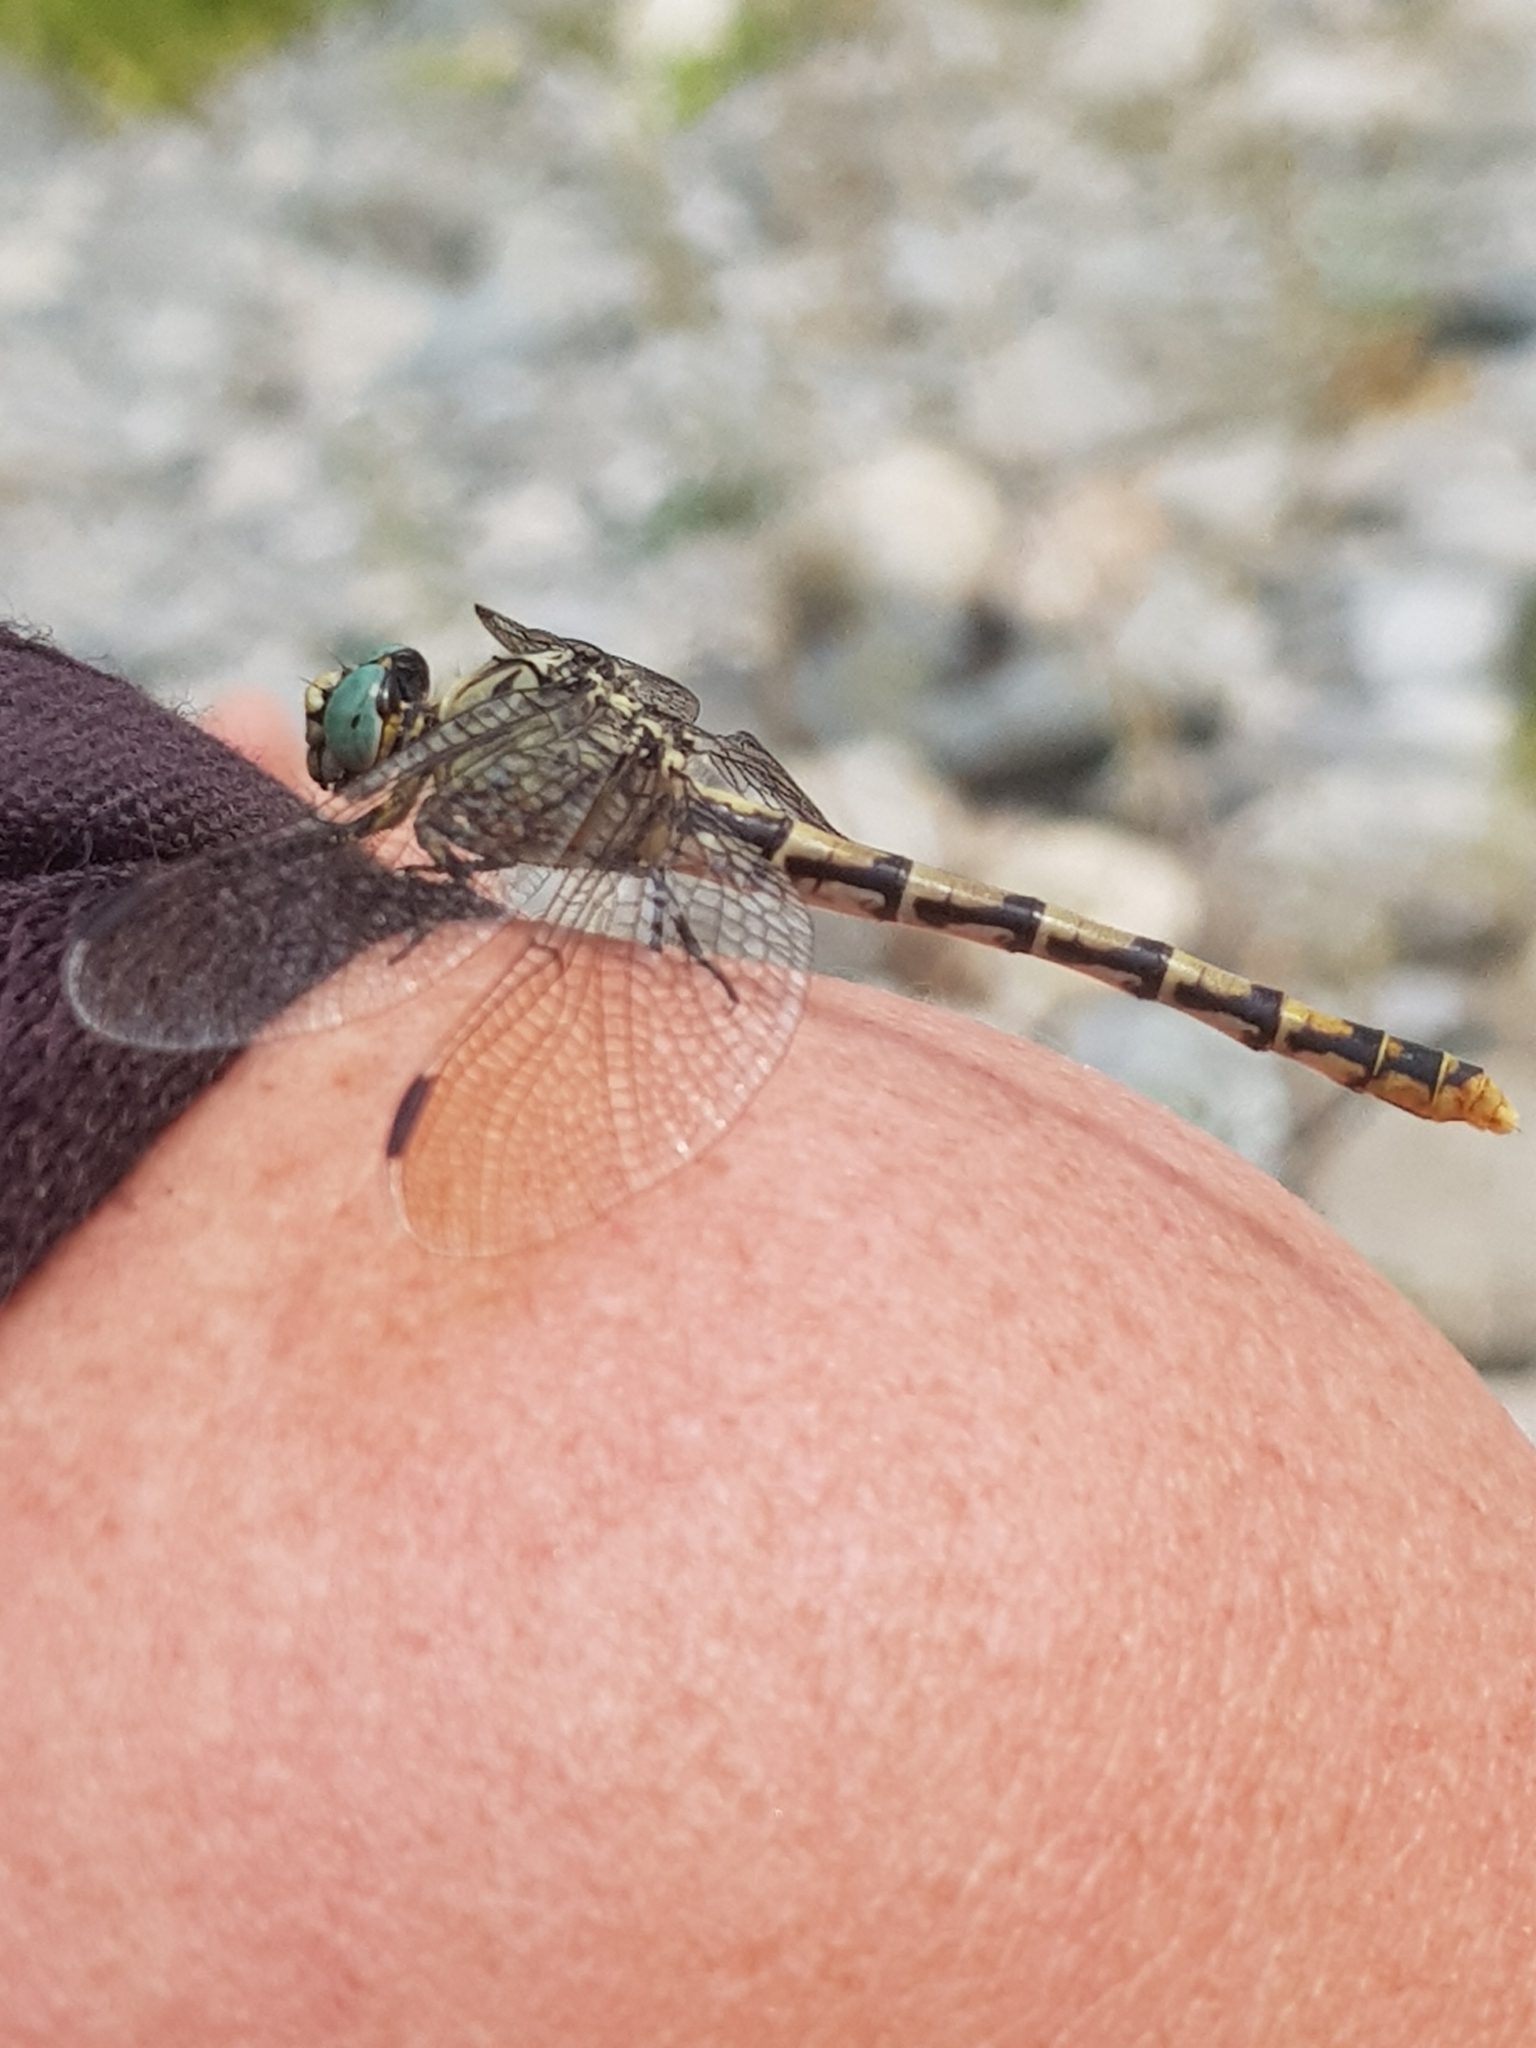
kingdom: Animalia
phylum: Arthropoda
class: Insecta
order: Odonata
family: Gomphidae
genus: Onychogomphus
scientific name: Onychogomphus forcipatus
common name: Small pincertail
